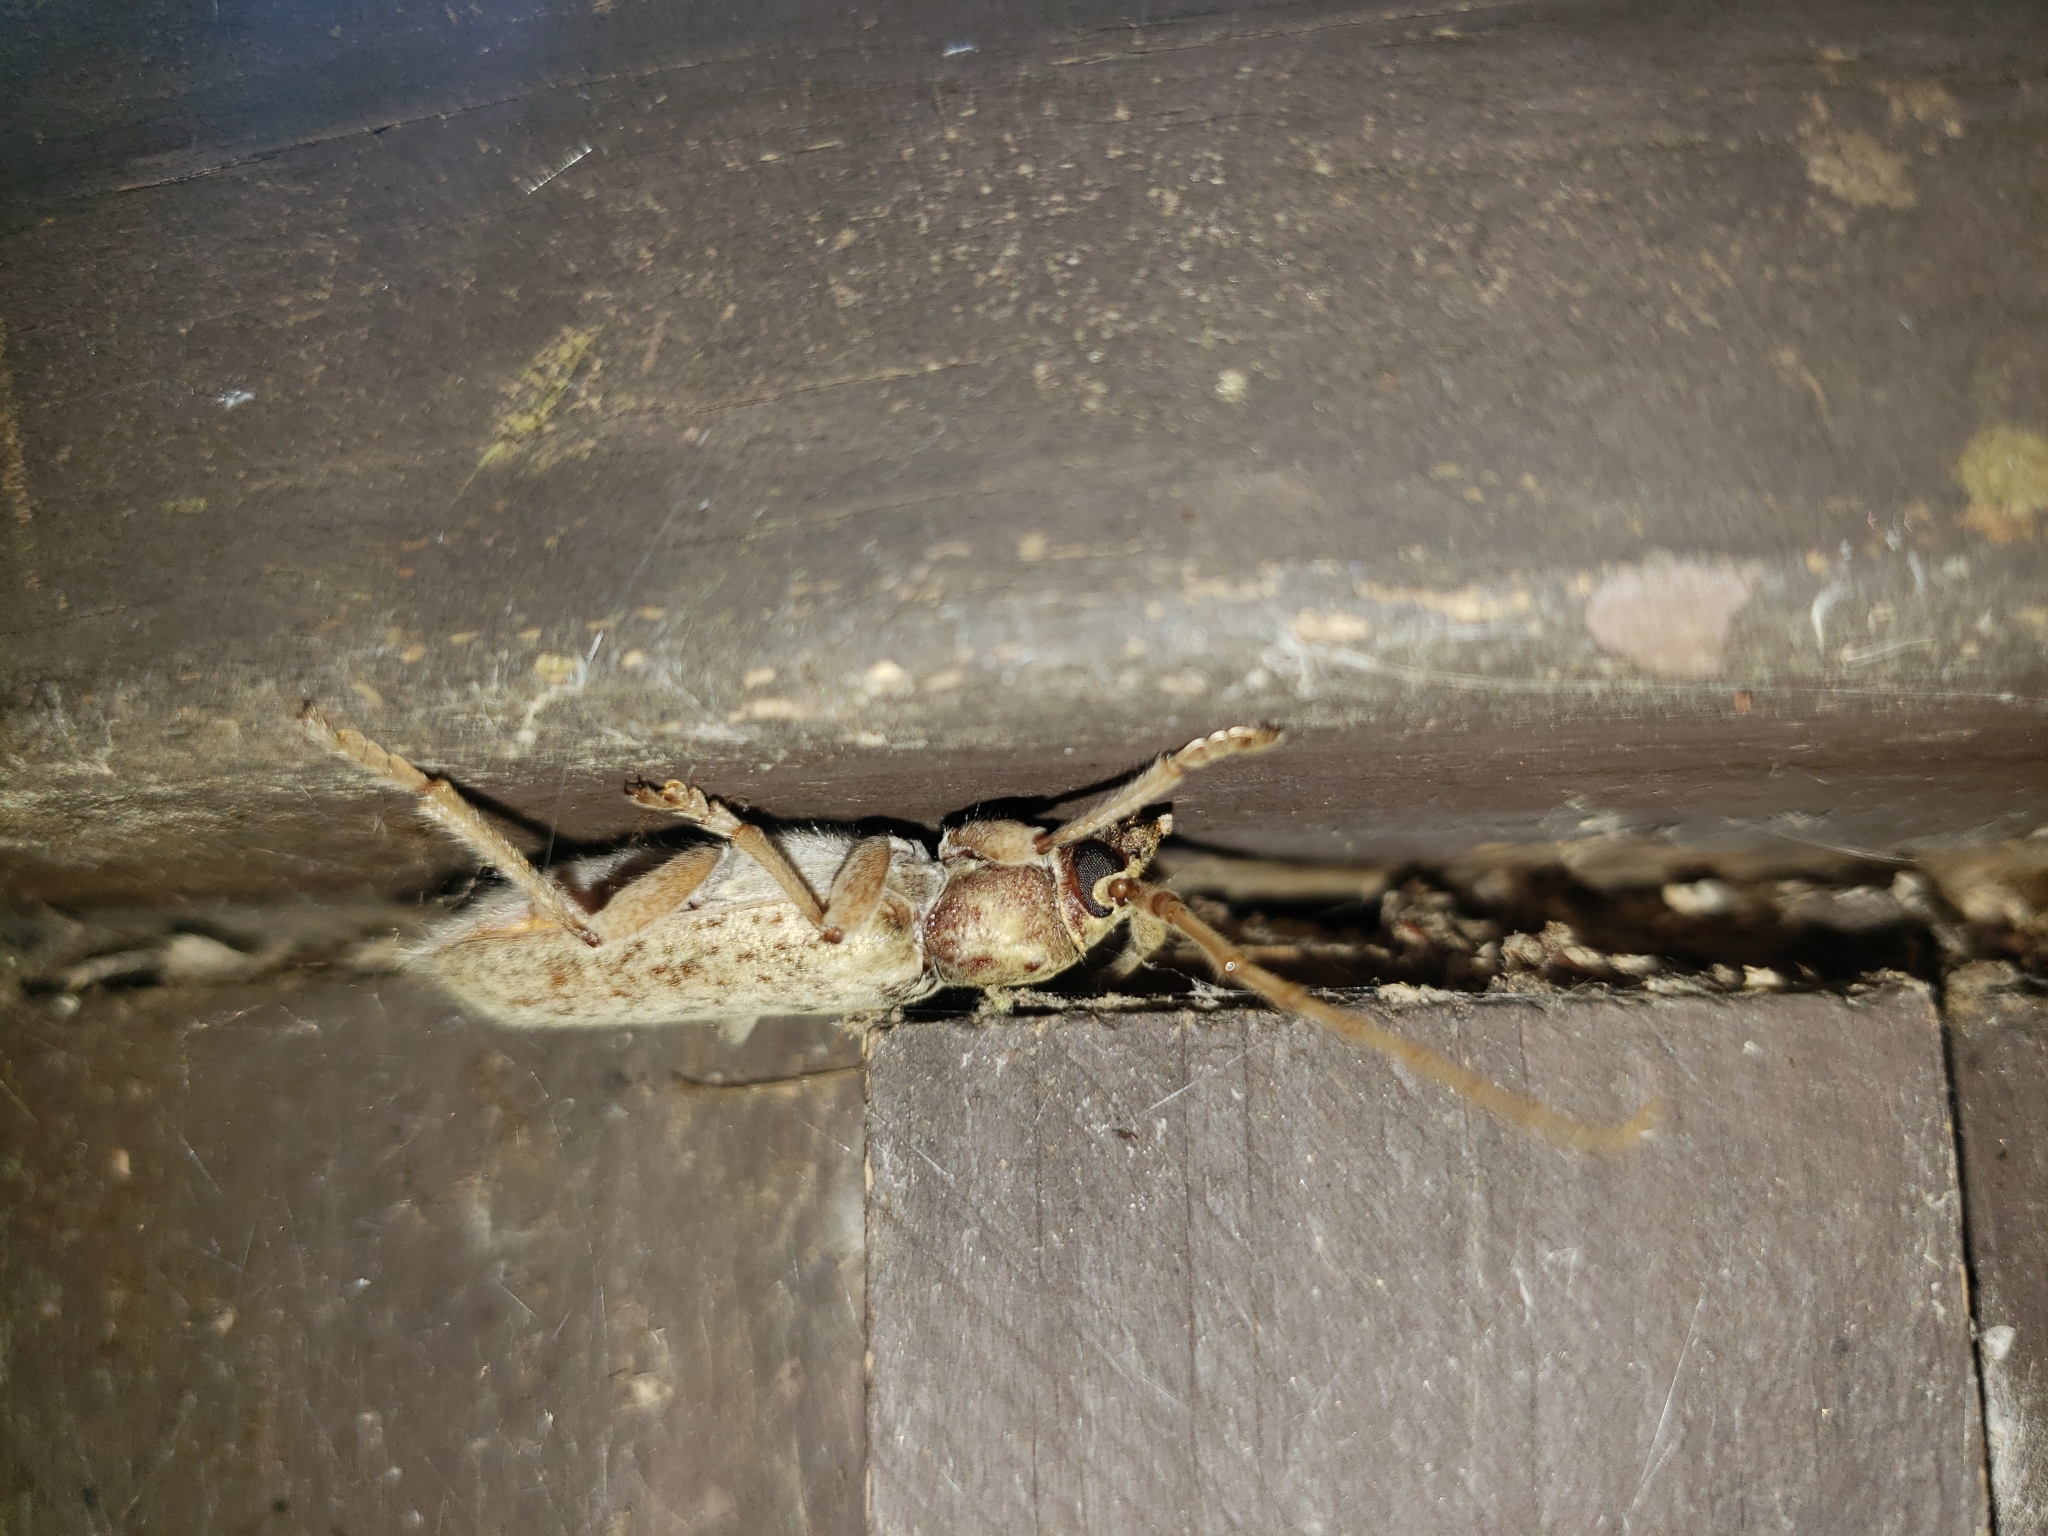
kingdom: Animalia
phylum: Arthropoda
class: Insecta
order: Coleoptera
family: Cerambycidae
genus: Enaphalodes
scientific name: Enaphalodes rufulus
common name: Red oak borer
